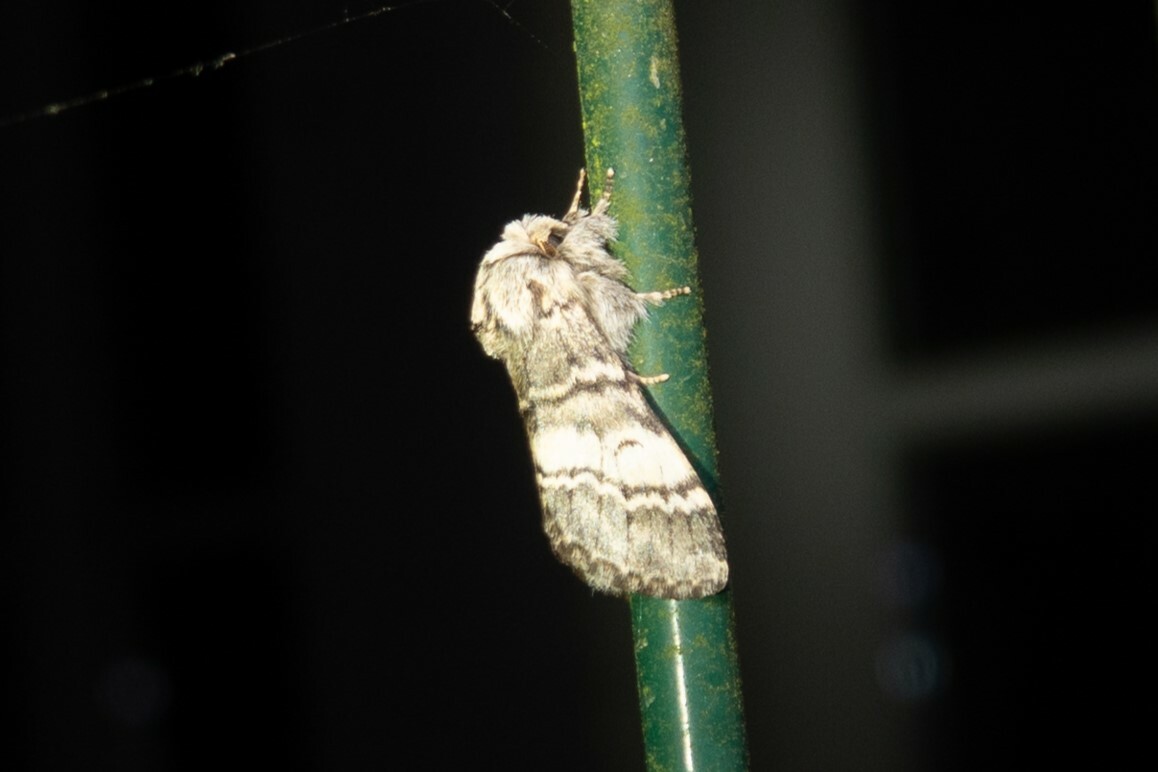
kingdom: Animalia
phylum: Arthropoda
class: Insecta
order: Lepidoptera
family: Notodontidae
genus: Drymonia
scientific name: Drymonia ruficornis
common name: Lunar marbled brown
